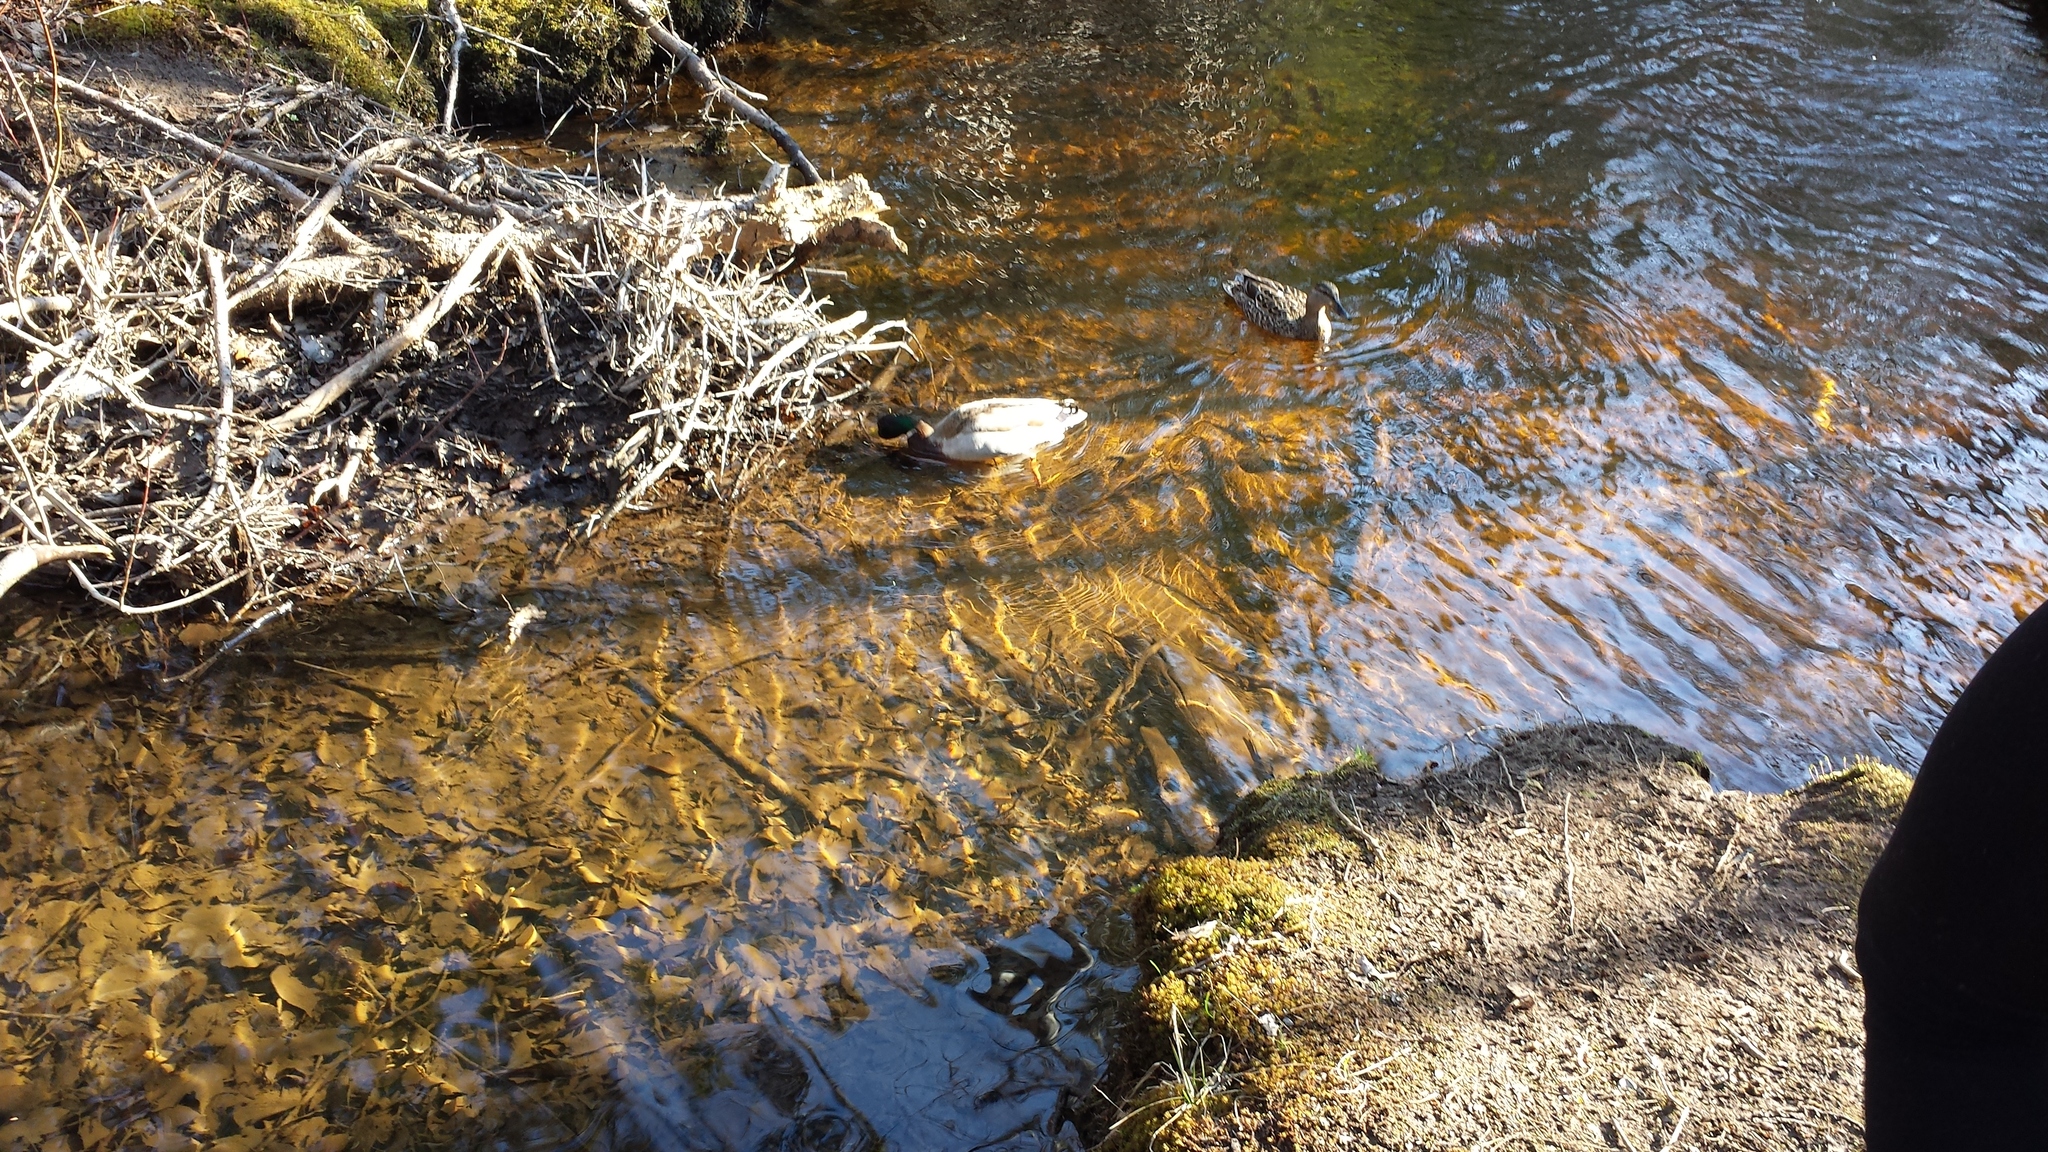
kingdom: Animalia
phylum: Chordata
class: Aves
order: Anseriformes
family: Anatidae
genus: Anas
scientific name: Anas platyrhynchos
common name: Mallard
